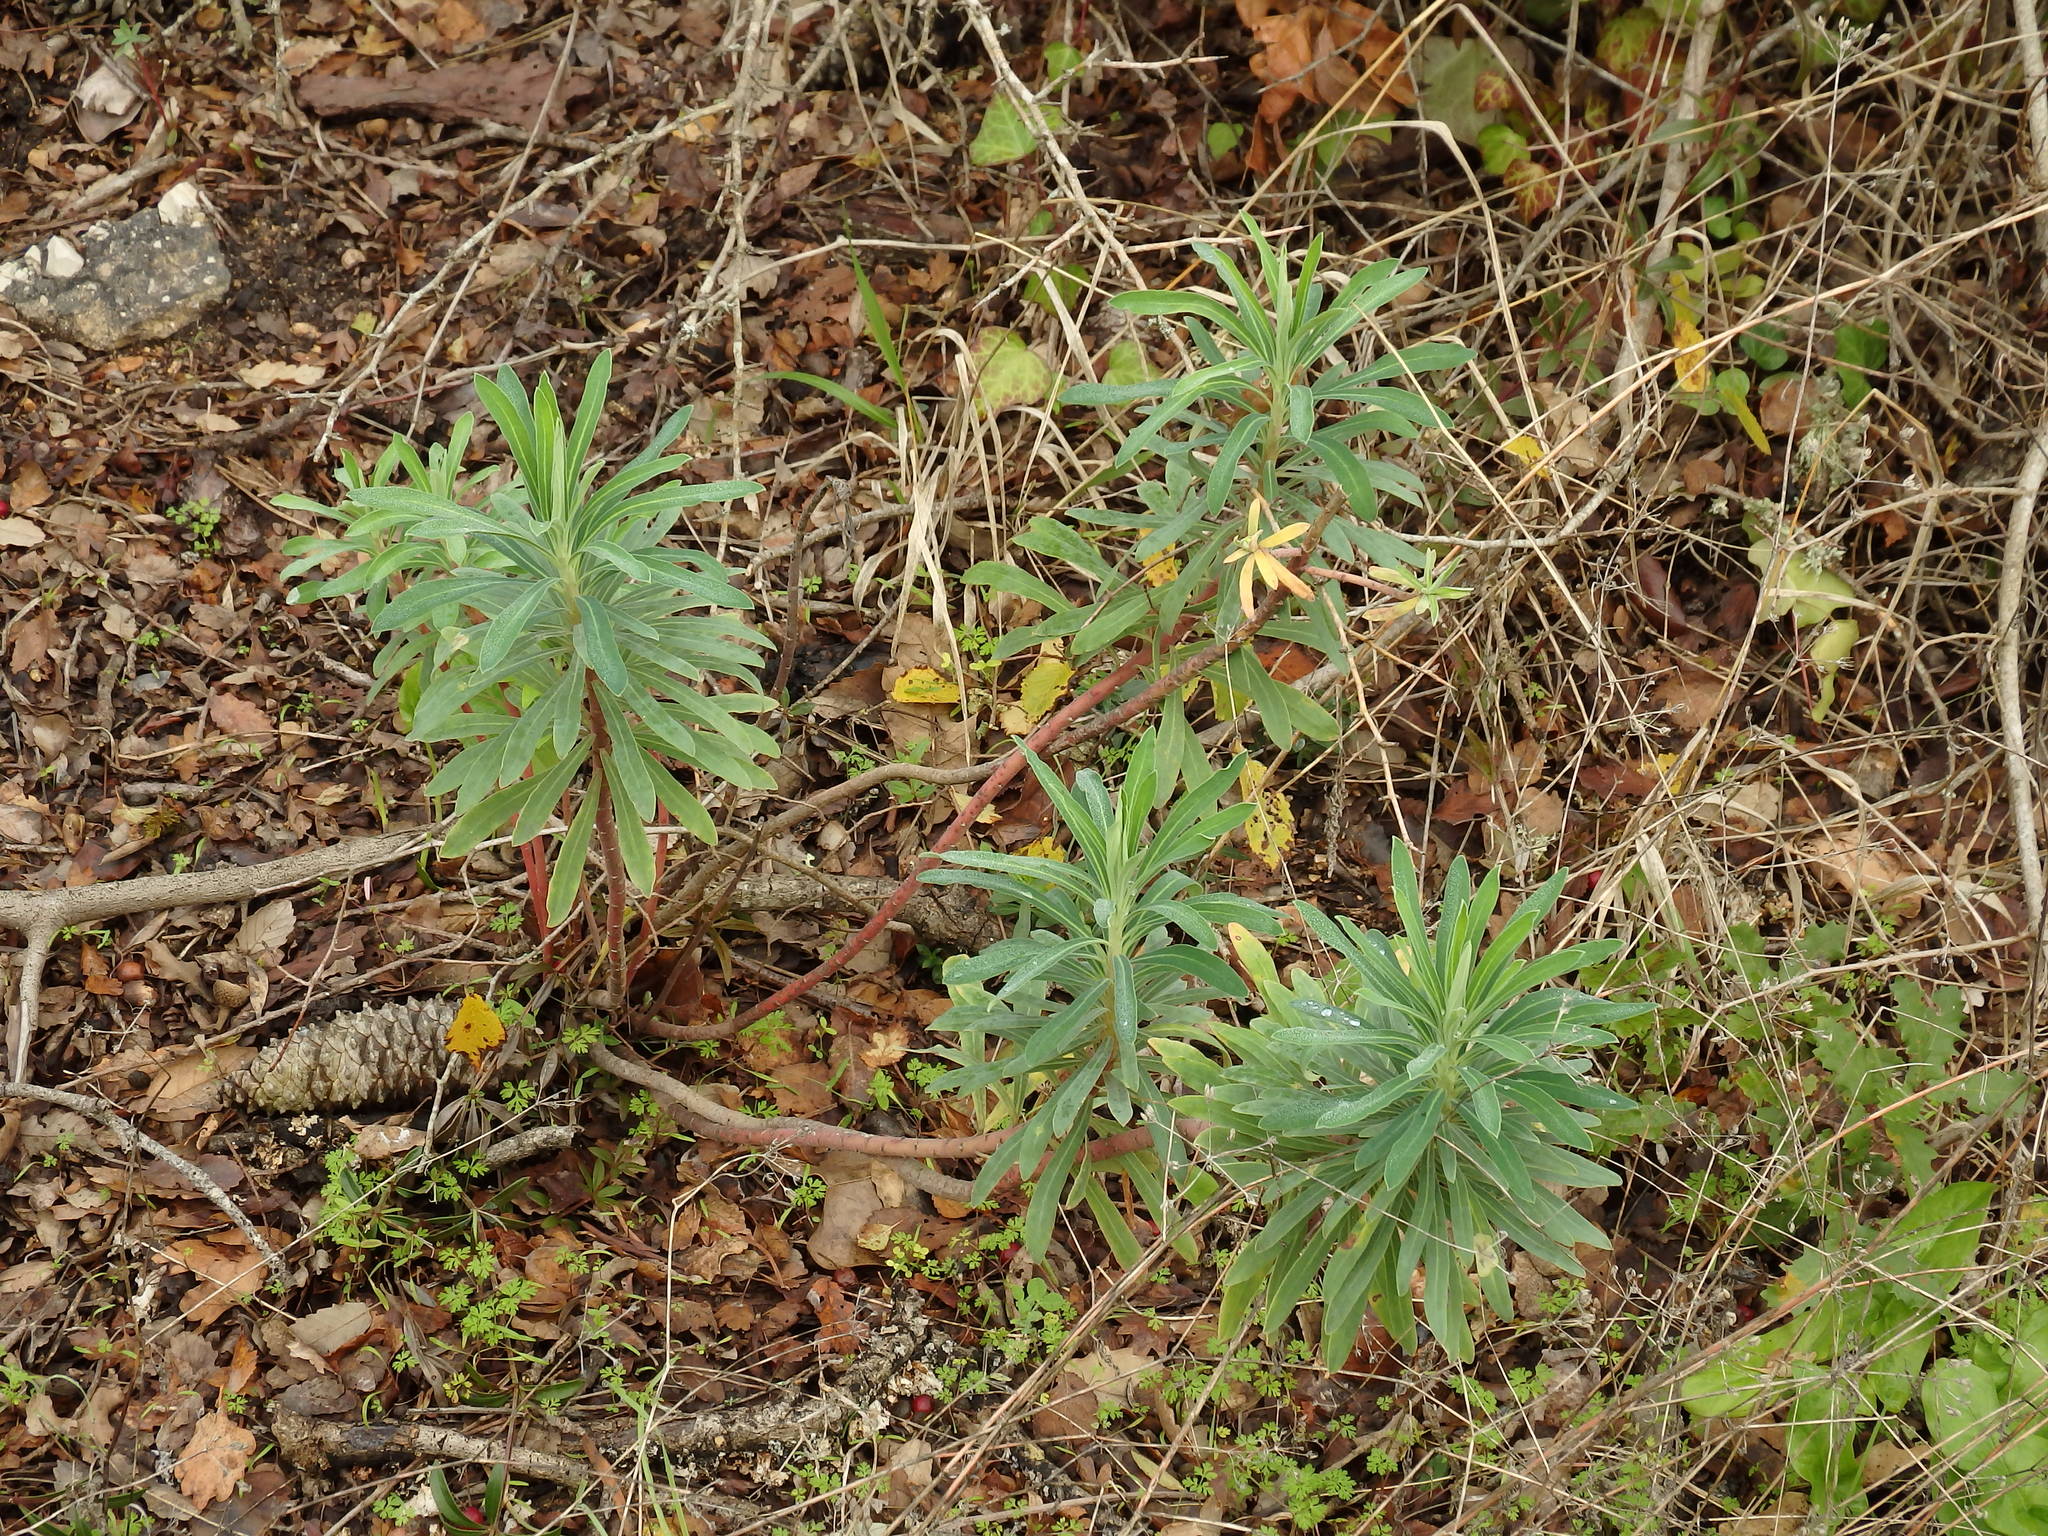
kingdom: Plantae
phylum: Tracheophyta
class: Magnoliopsida
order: Malpighiales
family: Euphorbiaceae
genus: Euphorbia
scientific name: Euphorbia characias
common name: Mediterranean spurge
